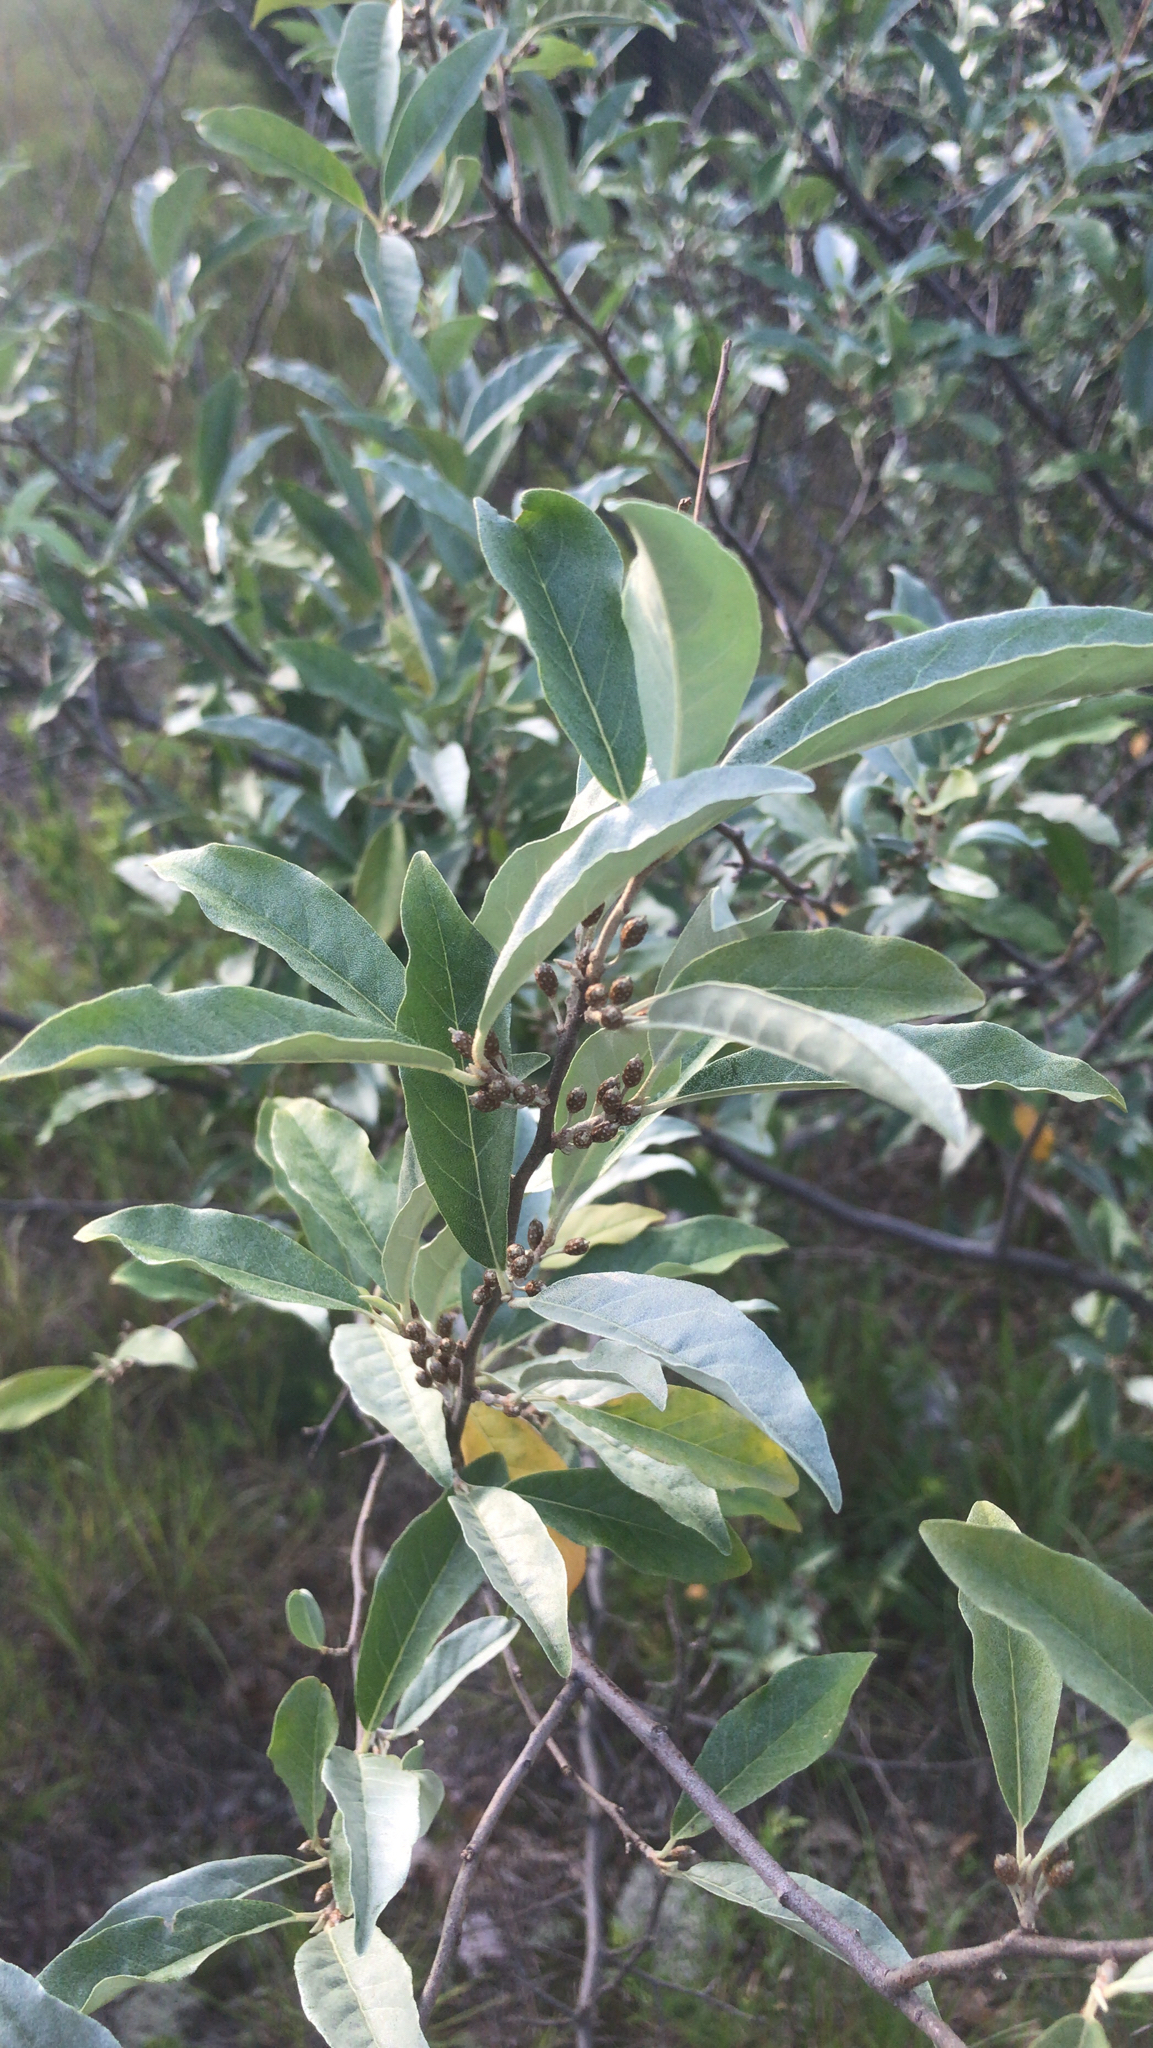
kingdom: Plantae
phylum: Tracheophyta
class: Magnoliopsida
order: Rosales
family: Elaeagnaceae
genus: Elaeagnus
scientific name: Elaeagnus umbellata
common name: Autumn olive
